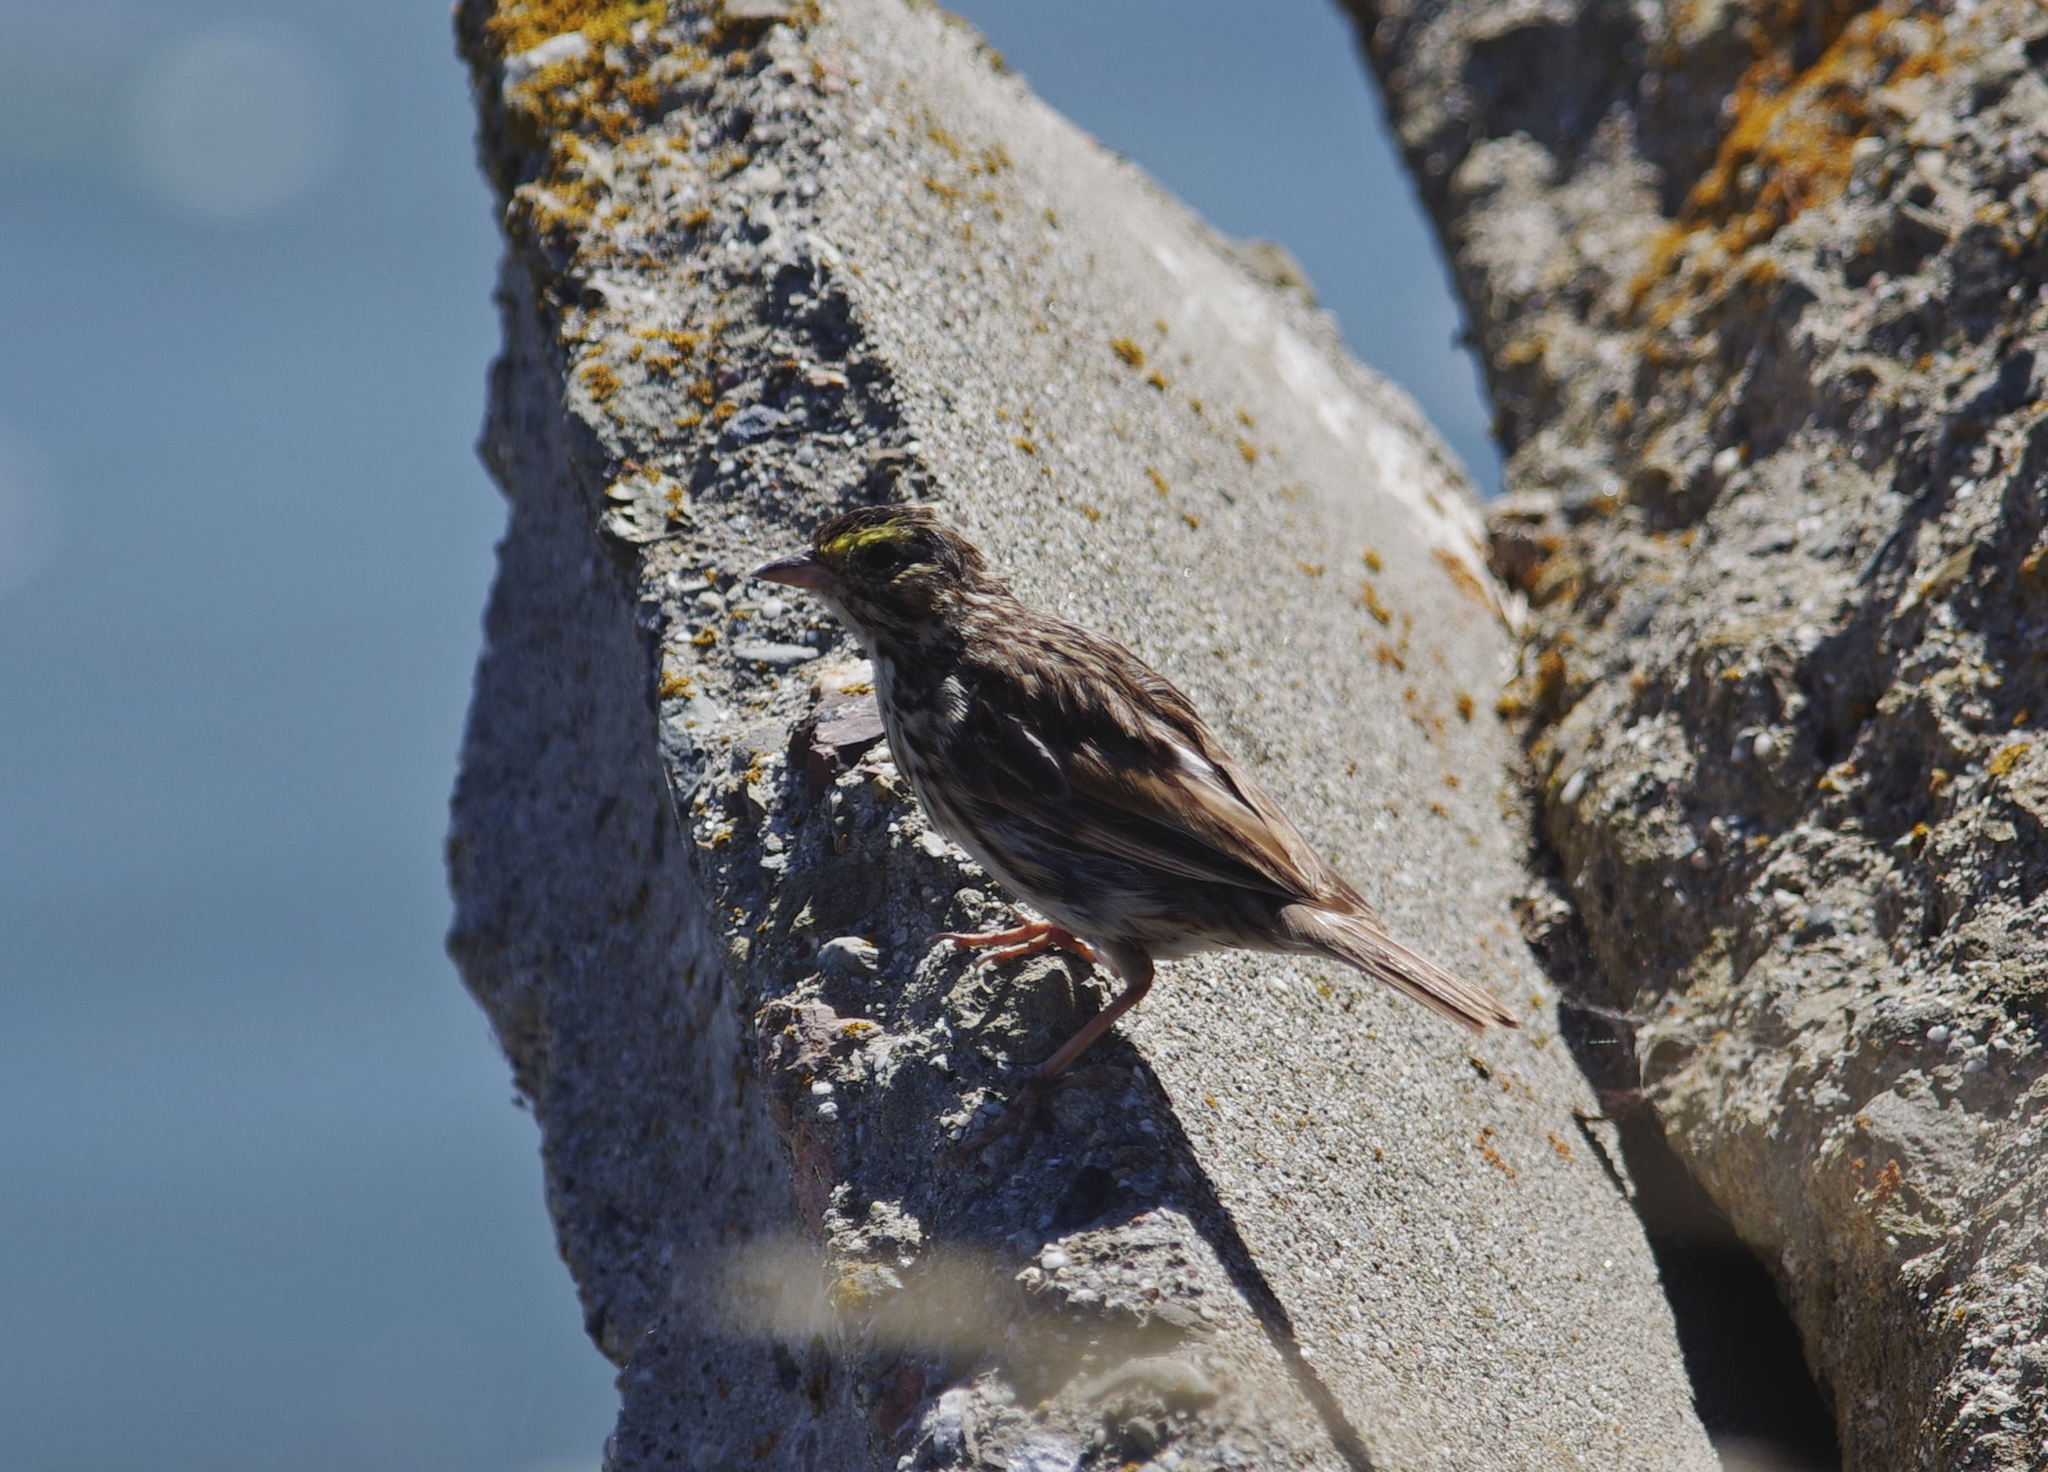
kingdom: Animalia
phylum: Chordata
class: Aves
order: Passeriformes
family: Passerellidae
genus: Passerculus
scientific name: Passerculus sandwichensis
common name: Savannah sparrow
